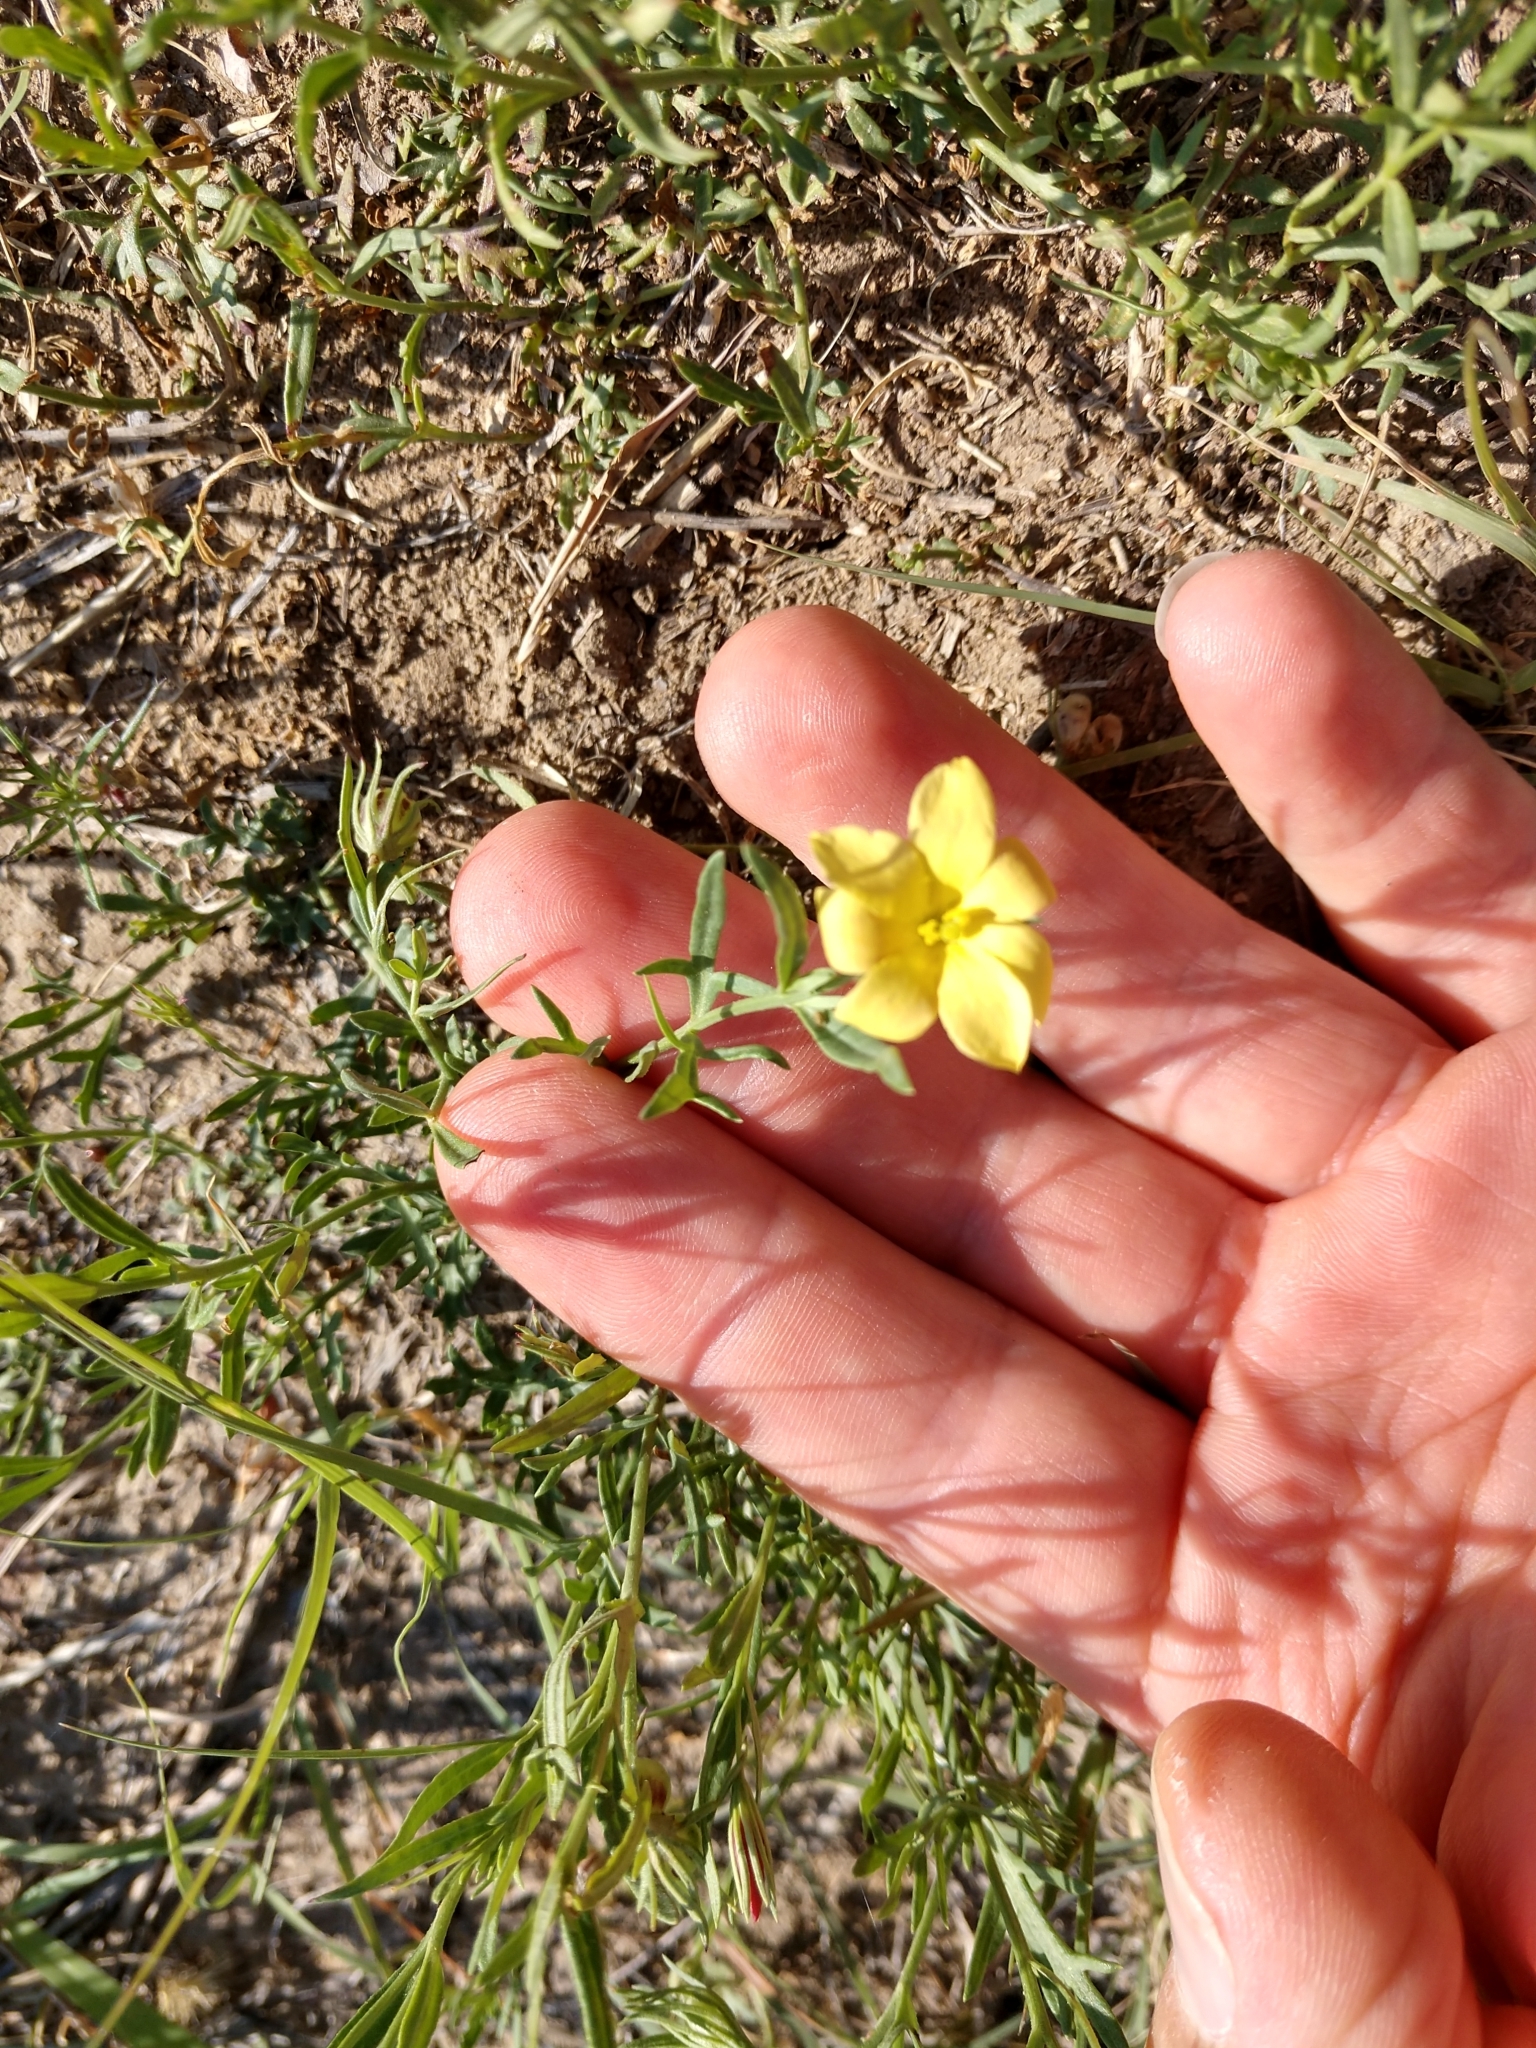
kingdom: Plantae
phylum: Tracheophyta
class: Magnoliopsida
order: Lamiales
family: Oleaceae
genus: Menodora
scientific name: Menodora heterophylla
